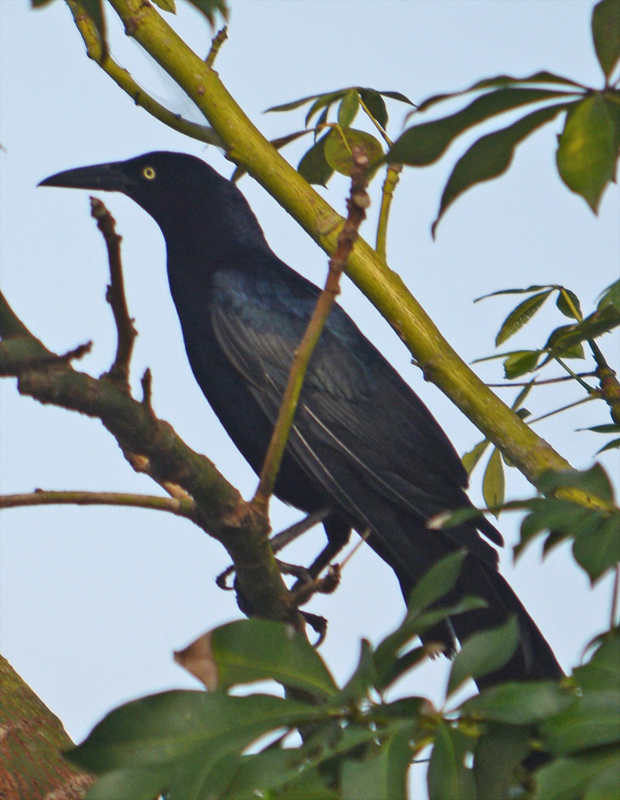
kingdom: Animalia
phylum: Chordata
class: Aves
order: Passeriformes
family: Icteridae
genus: Quiscalus
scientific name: Quiscalus mexicanus
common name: Great-tailed grackle
